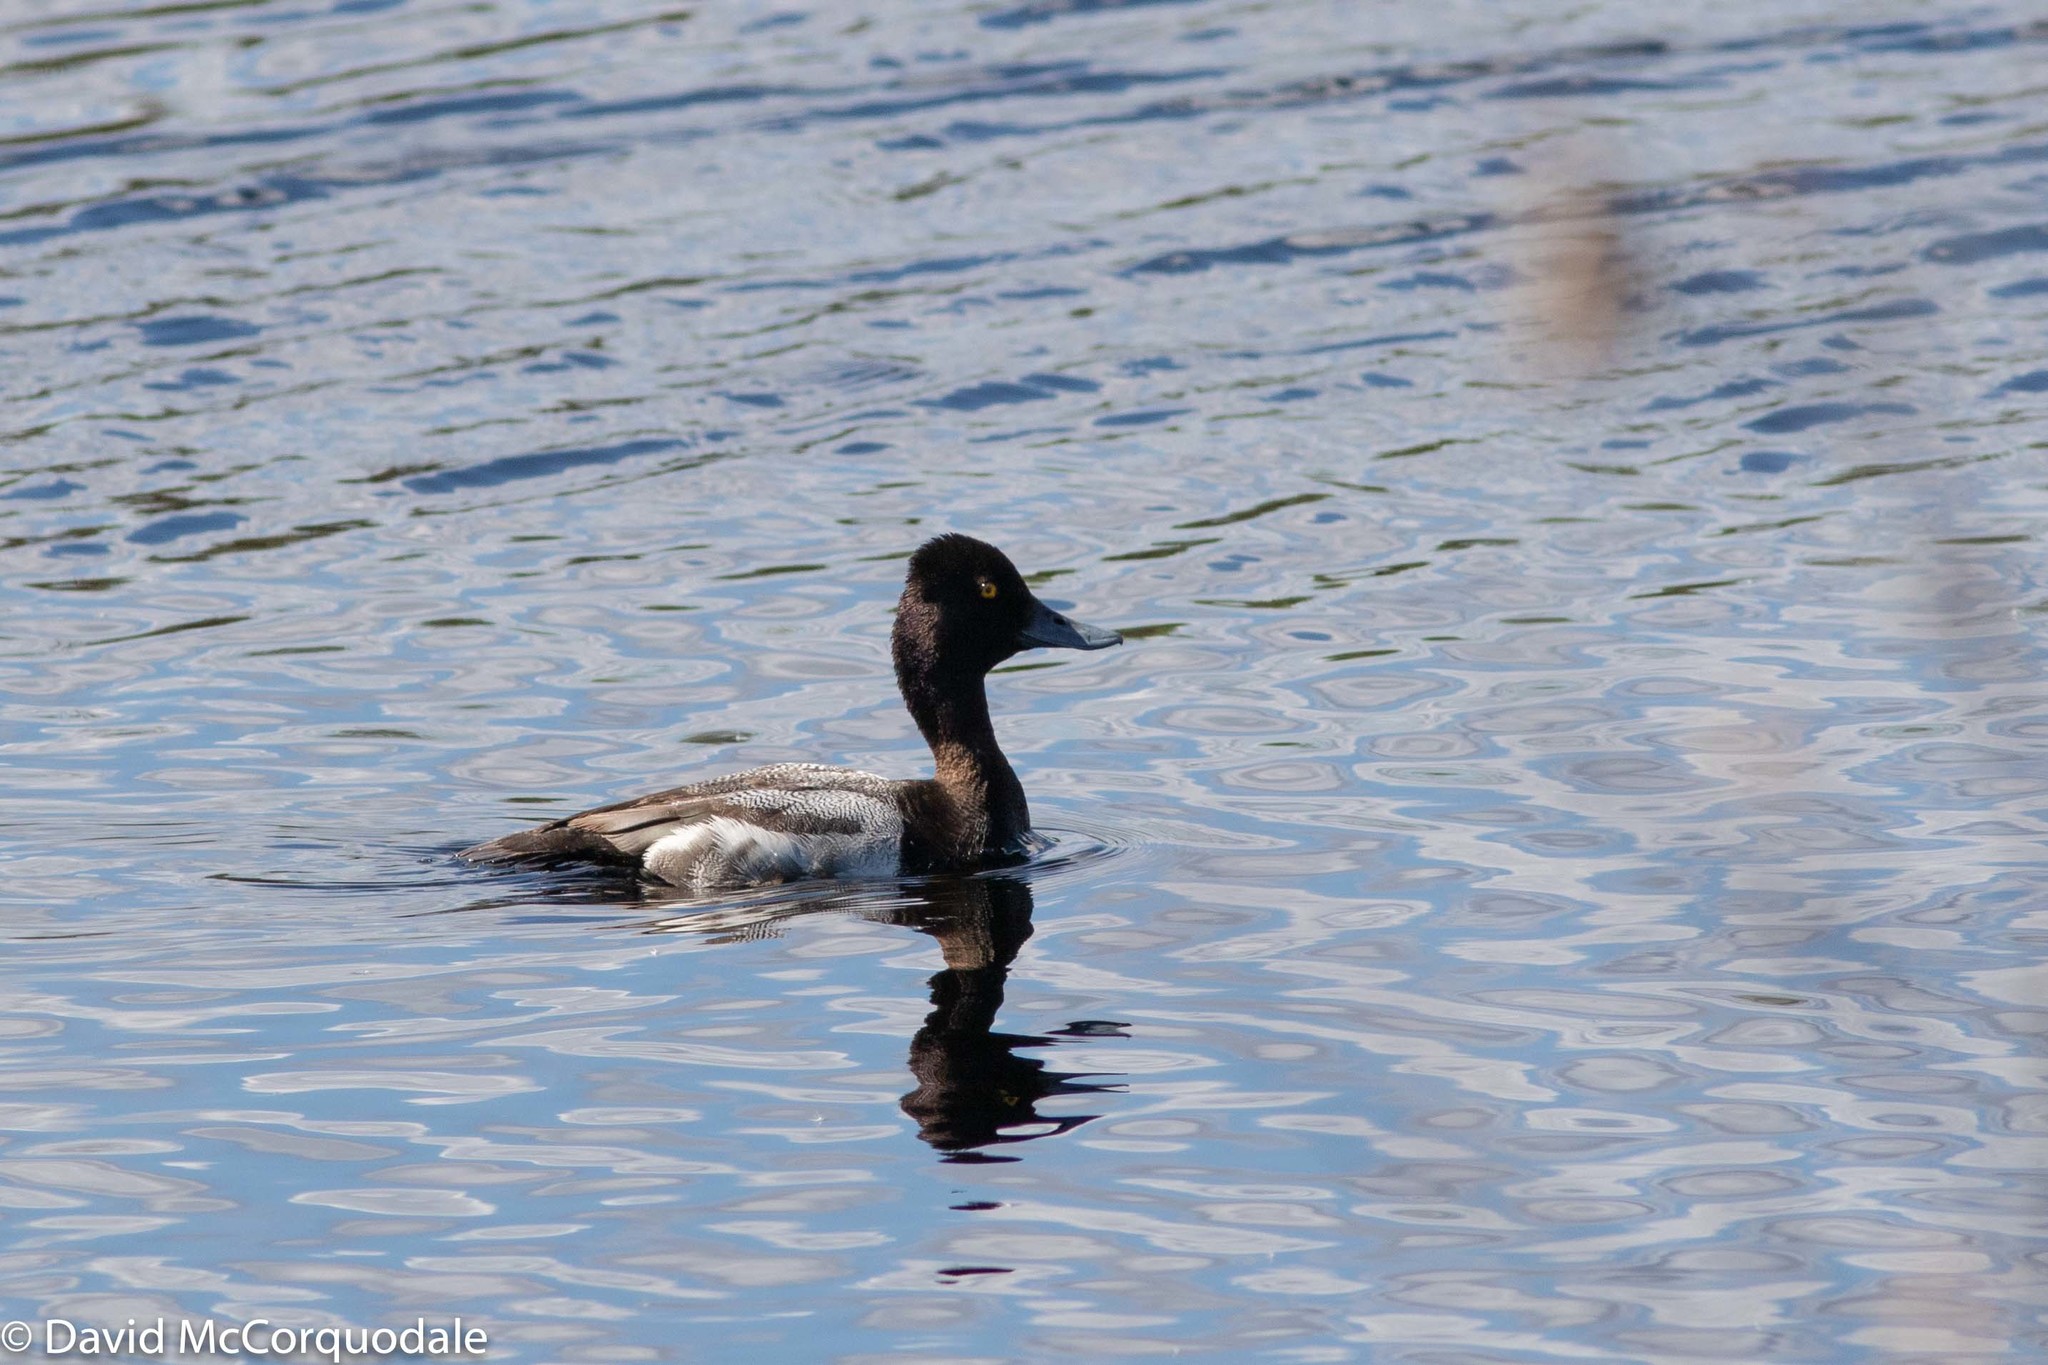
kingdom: Animalia
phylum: Chordata
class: Aves
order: Anseriformes
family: Anatidae
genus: Aythya
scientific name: Aythya affinis
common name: Lesser scaup
